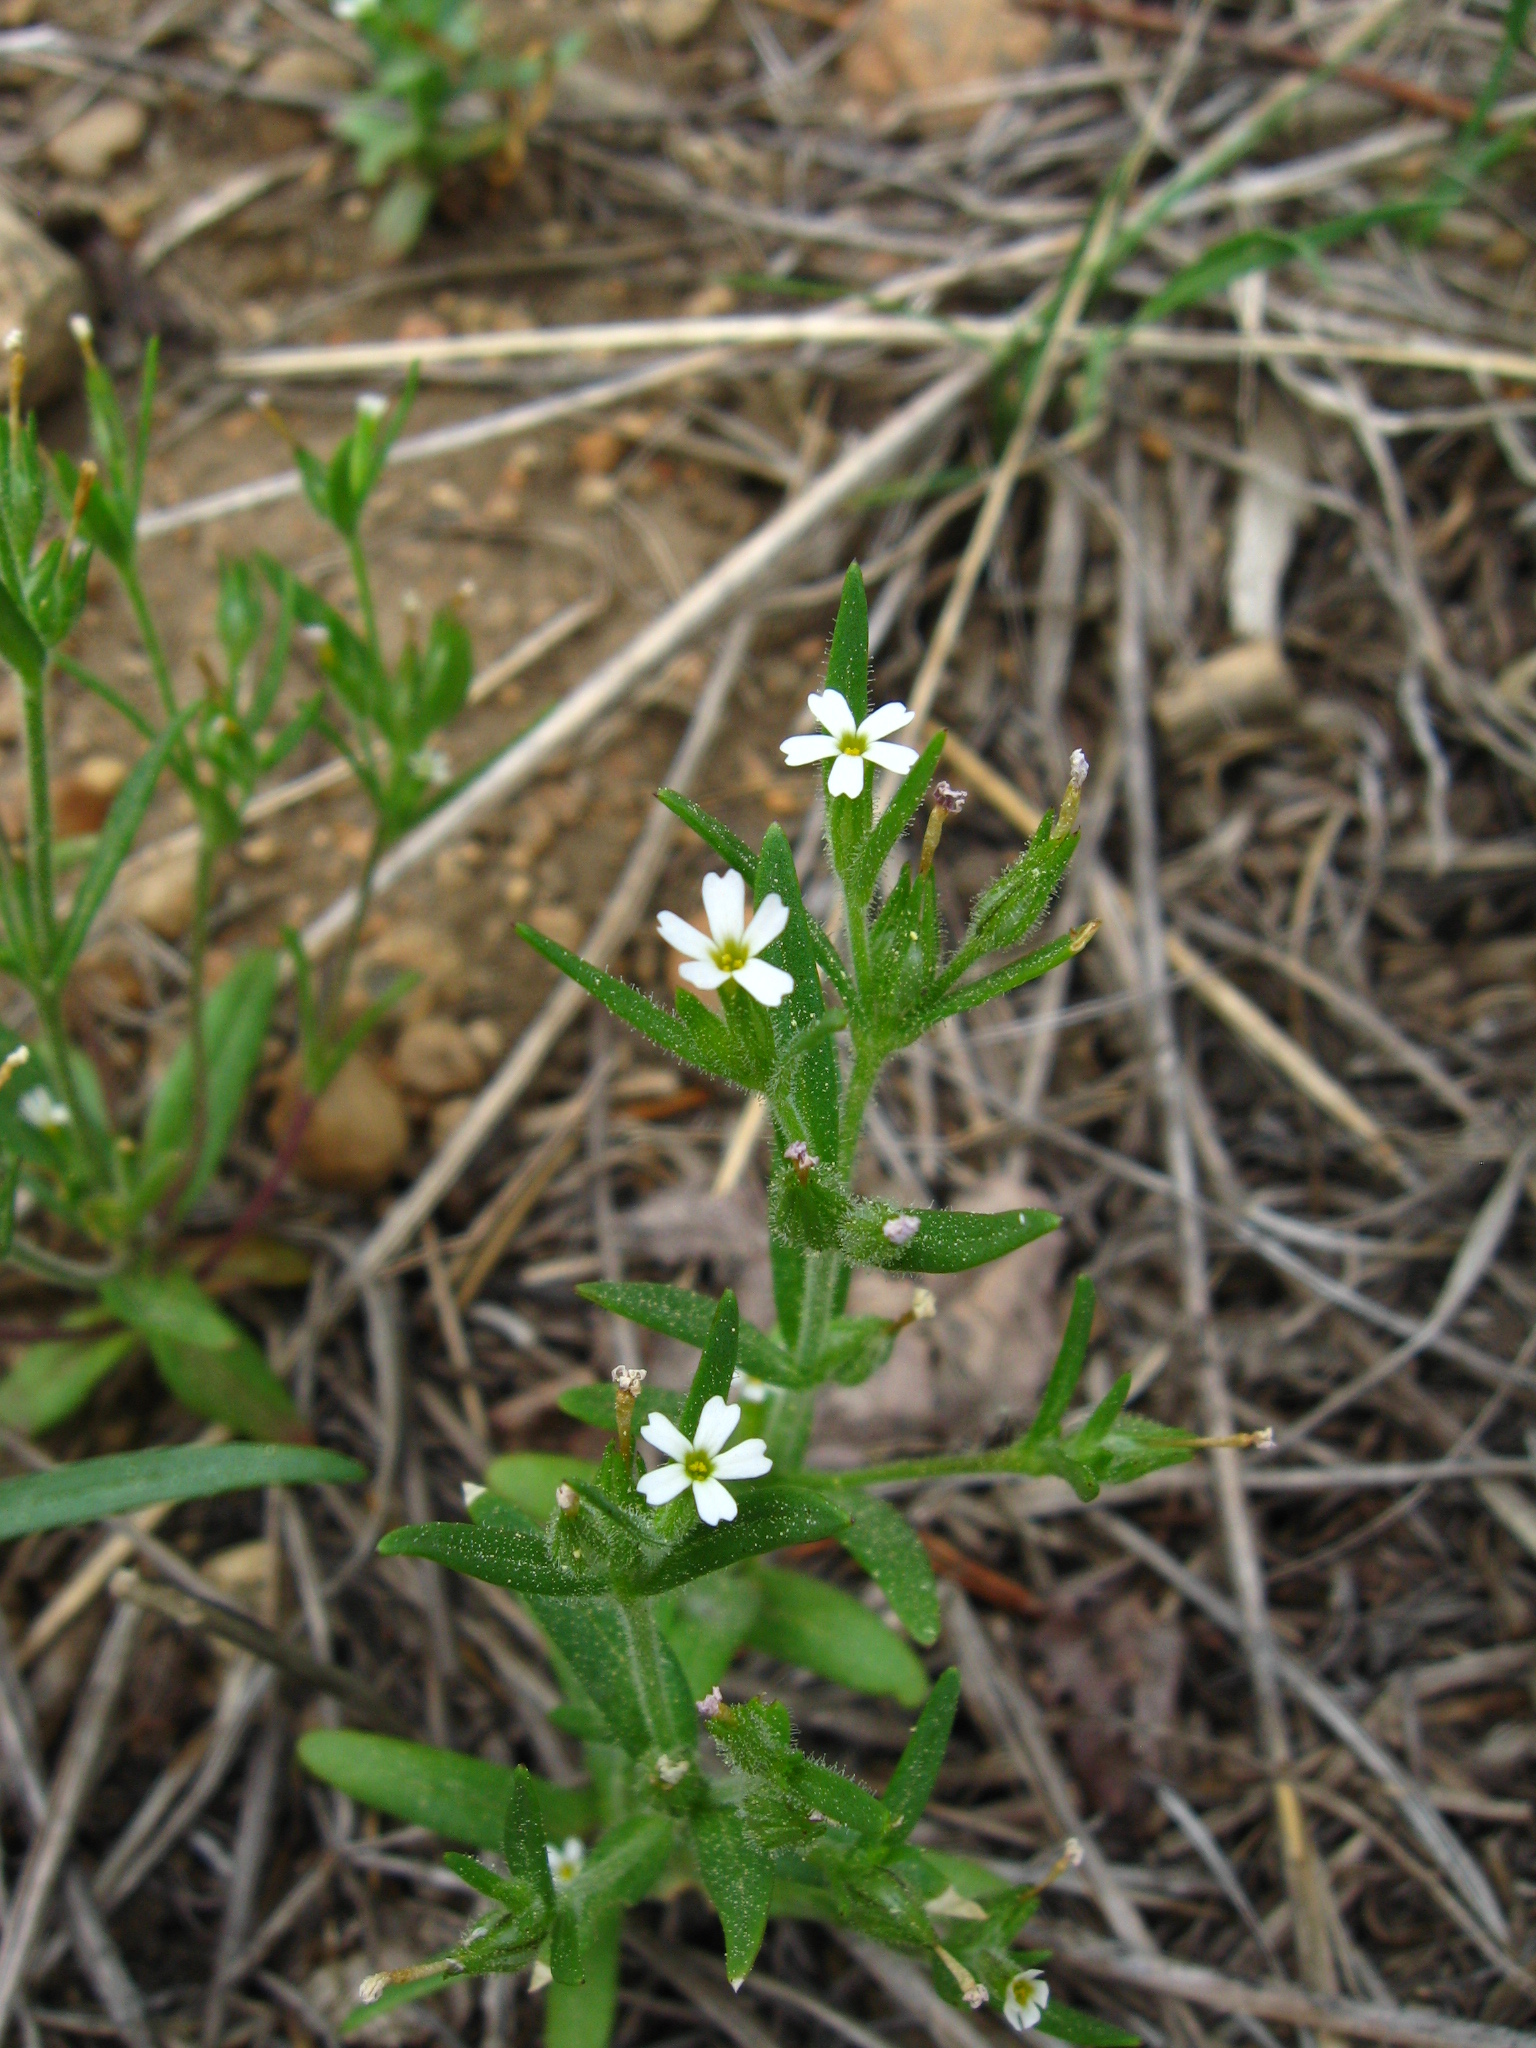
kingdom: Plantae
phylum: Tracheophyta
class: Magnoliopsida
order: Ericales
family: Polemoniaceae
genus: Phlox
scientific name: Phlox gracilis
